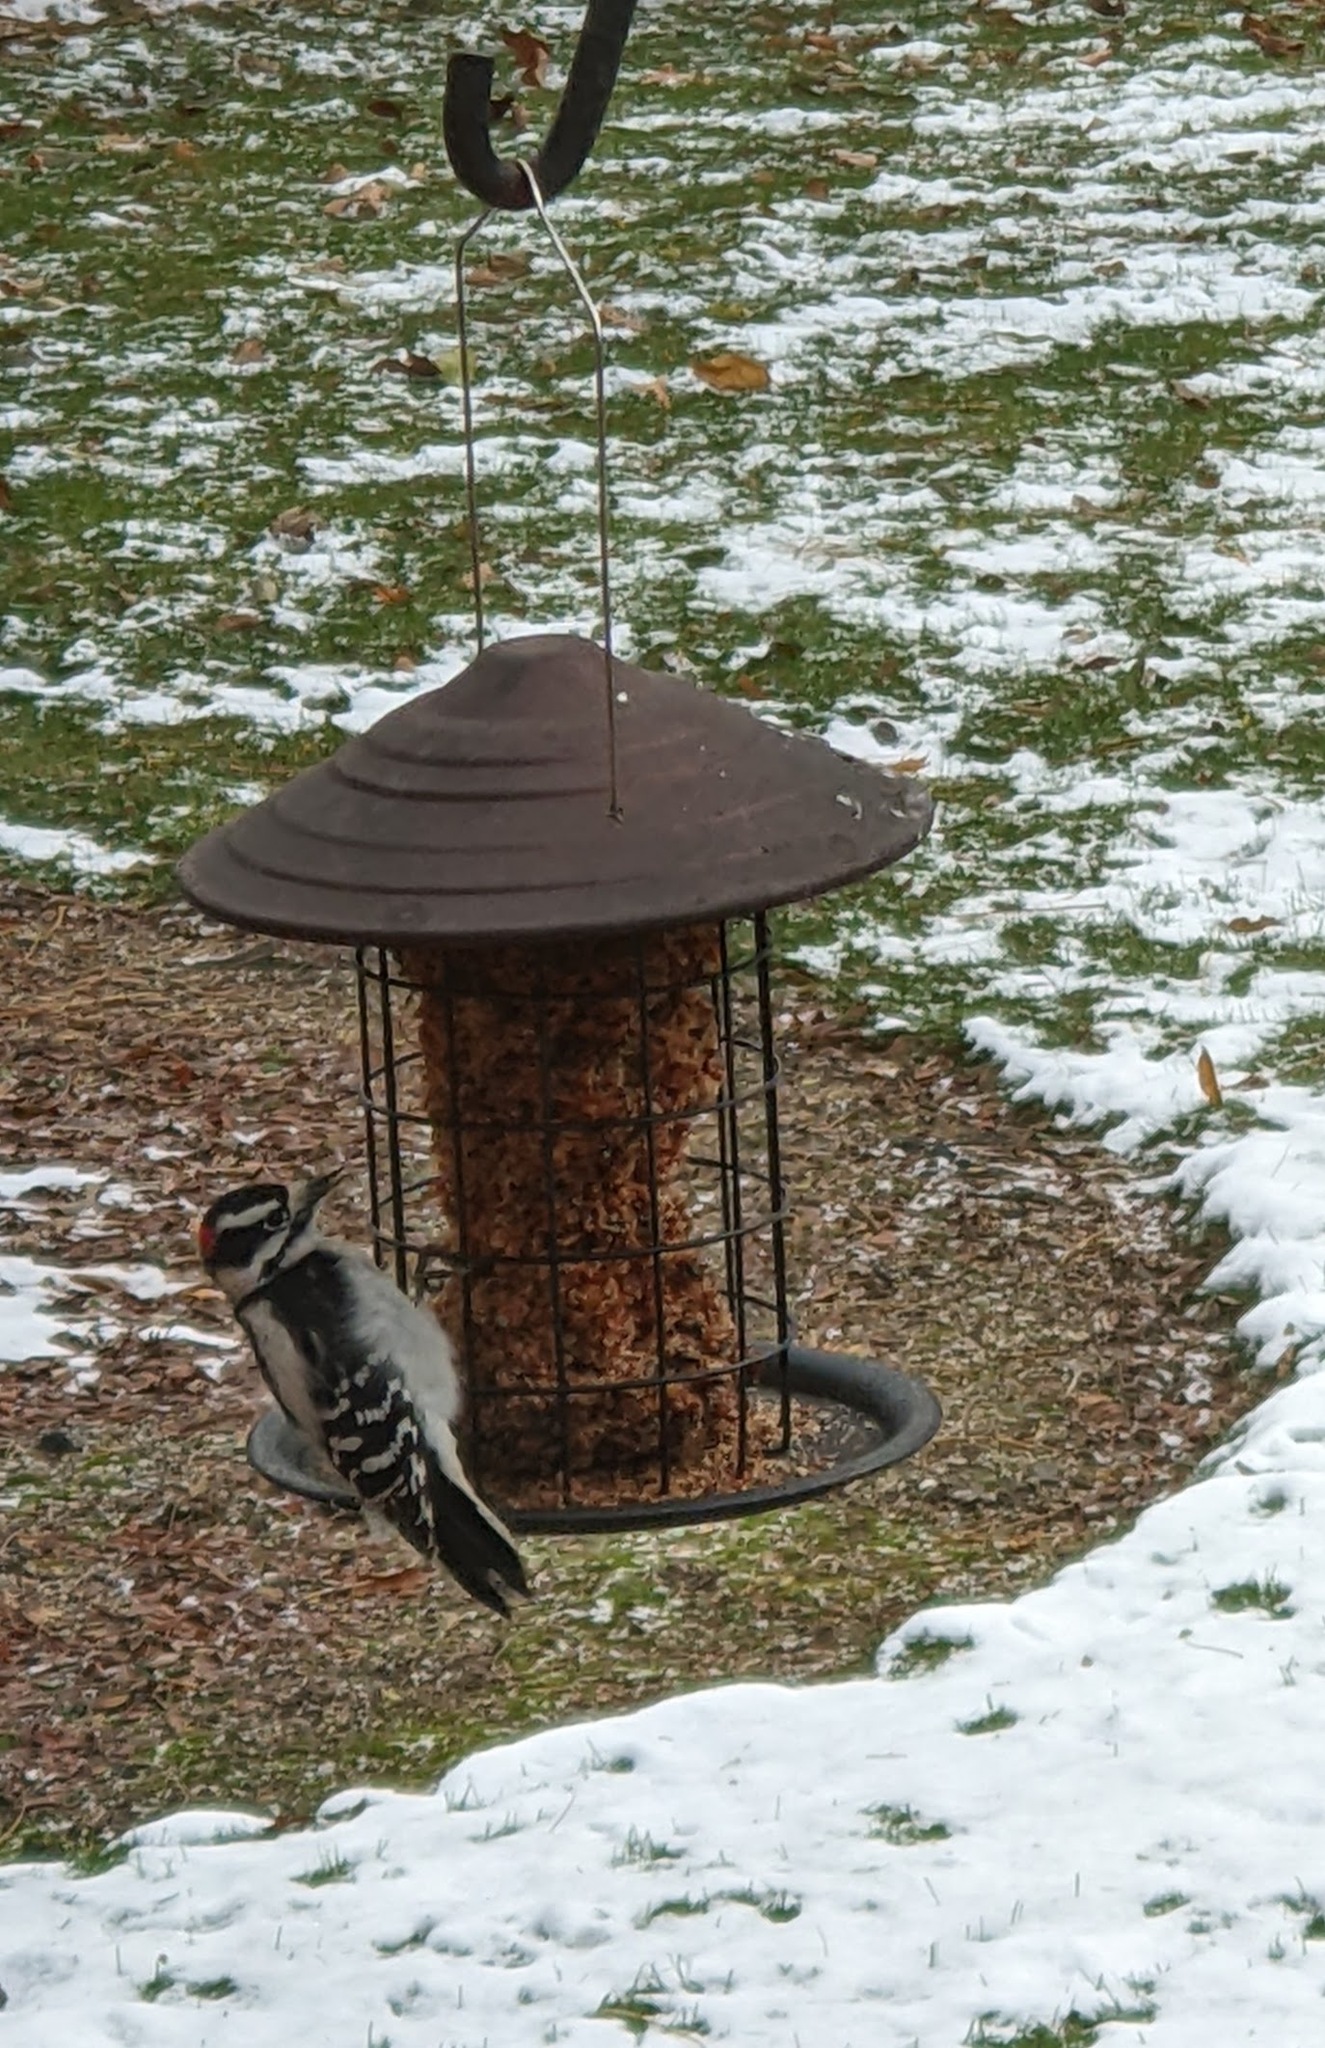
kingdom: Animalia
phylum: Chordata
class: Aves
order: Piciformes
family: Picidae
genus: Dryobates
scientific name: Dryobates pubescens
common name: Downy woodpecker
